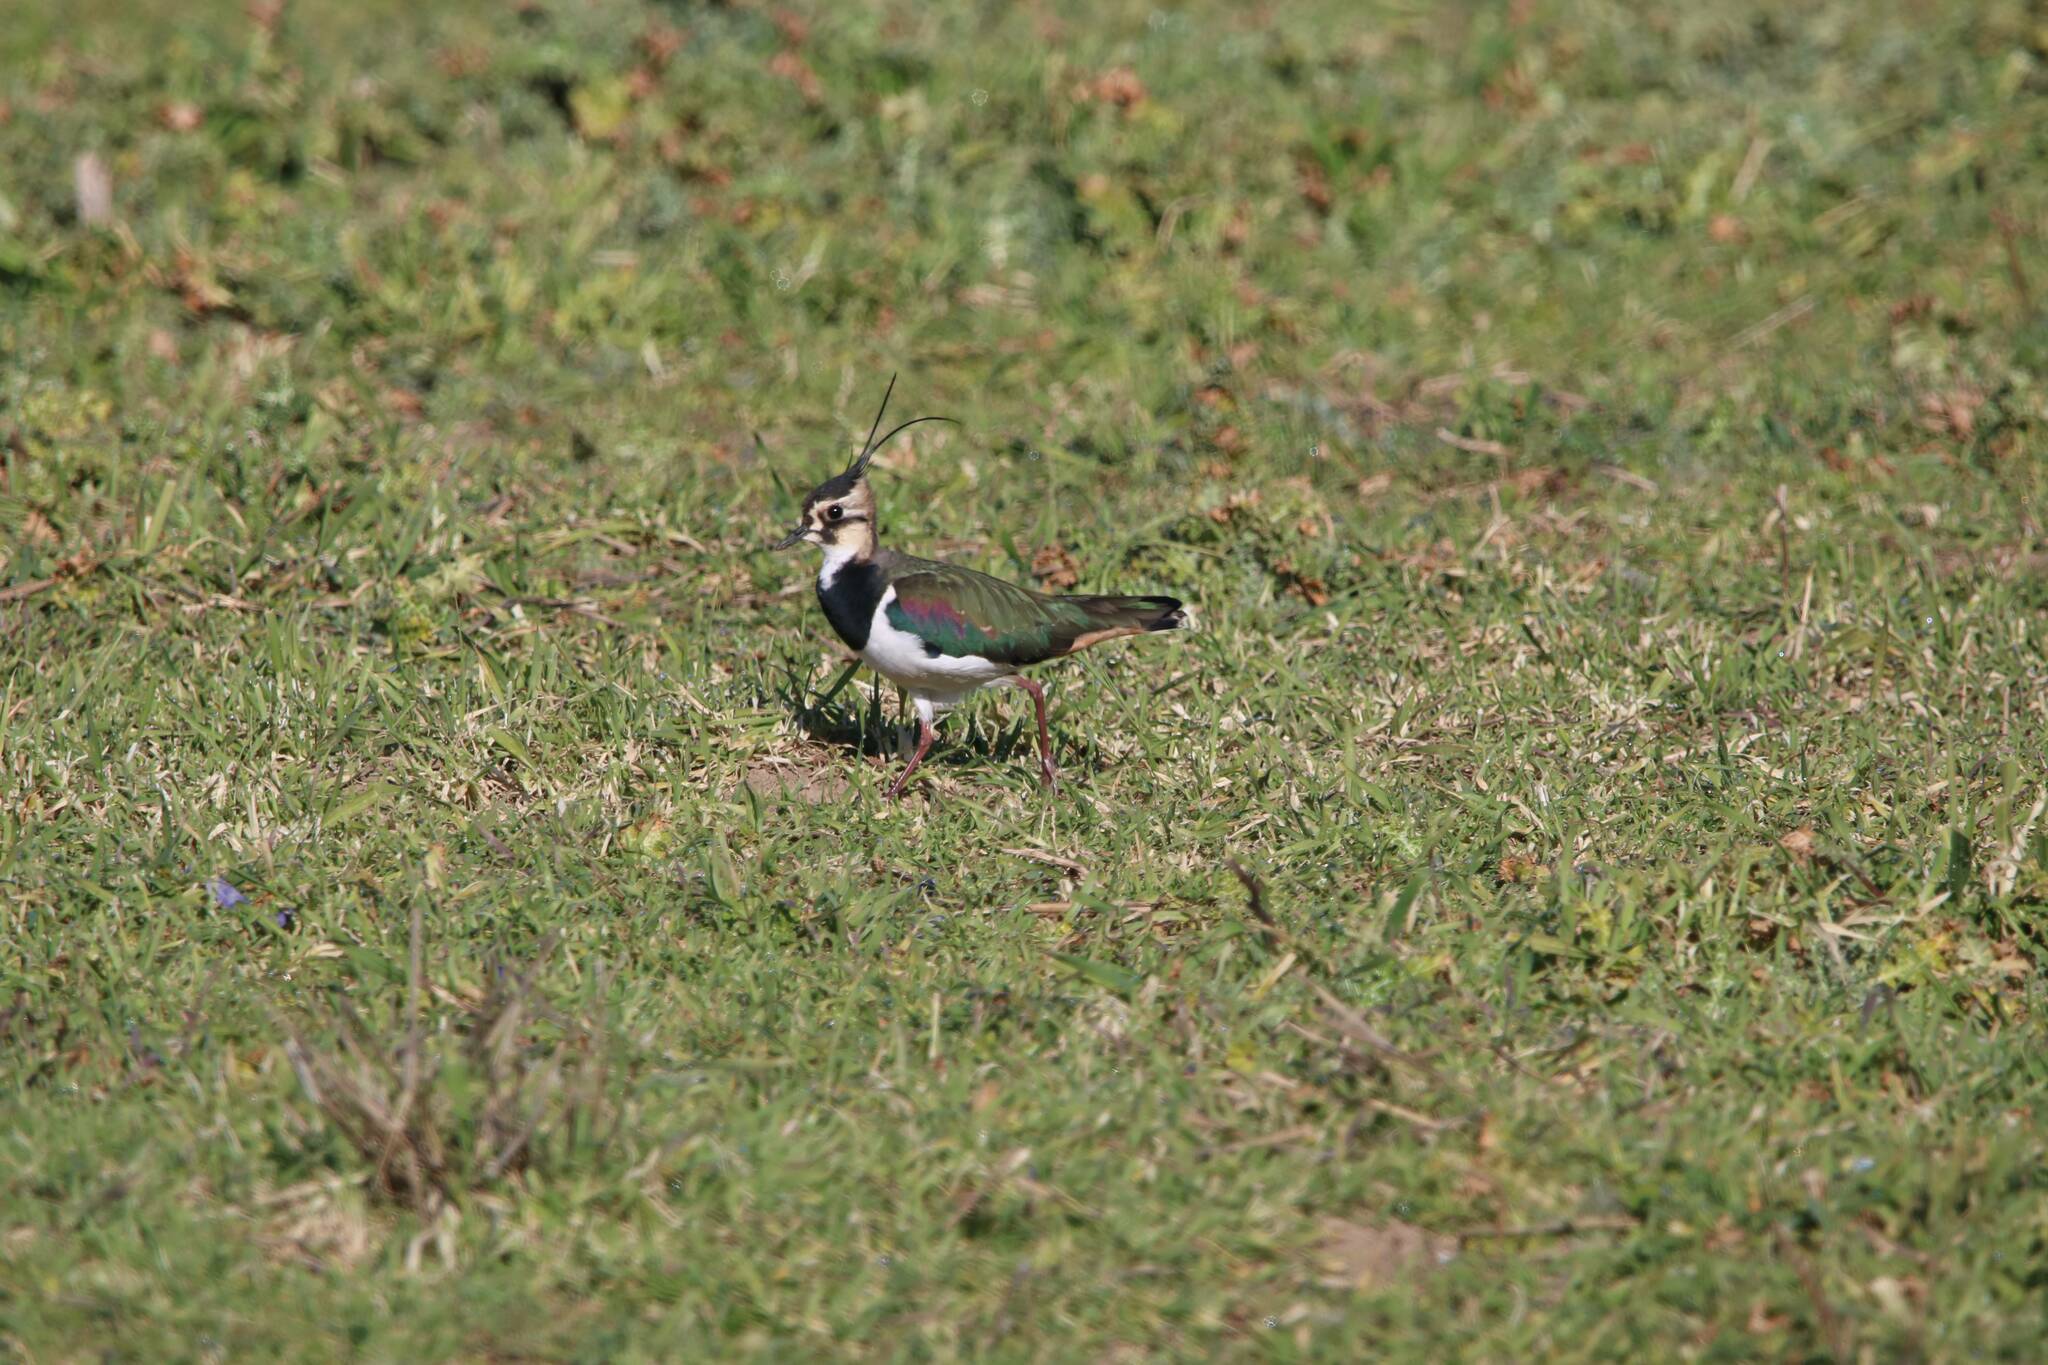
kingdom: Animalia
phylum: Chordata
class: Aves
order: Charadriiformes
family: Charadriidae
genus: Vanellus
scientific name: Vanellus vanellus
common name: Northern lapwing
